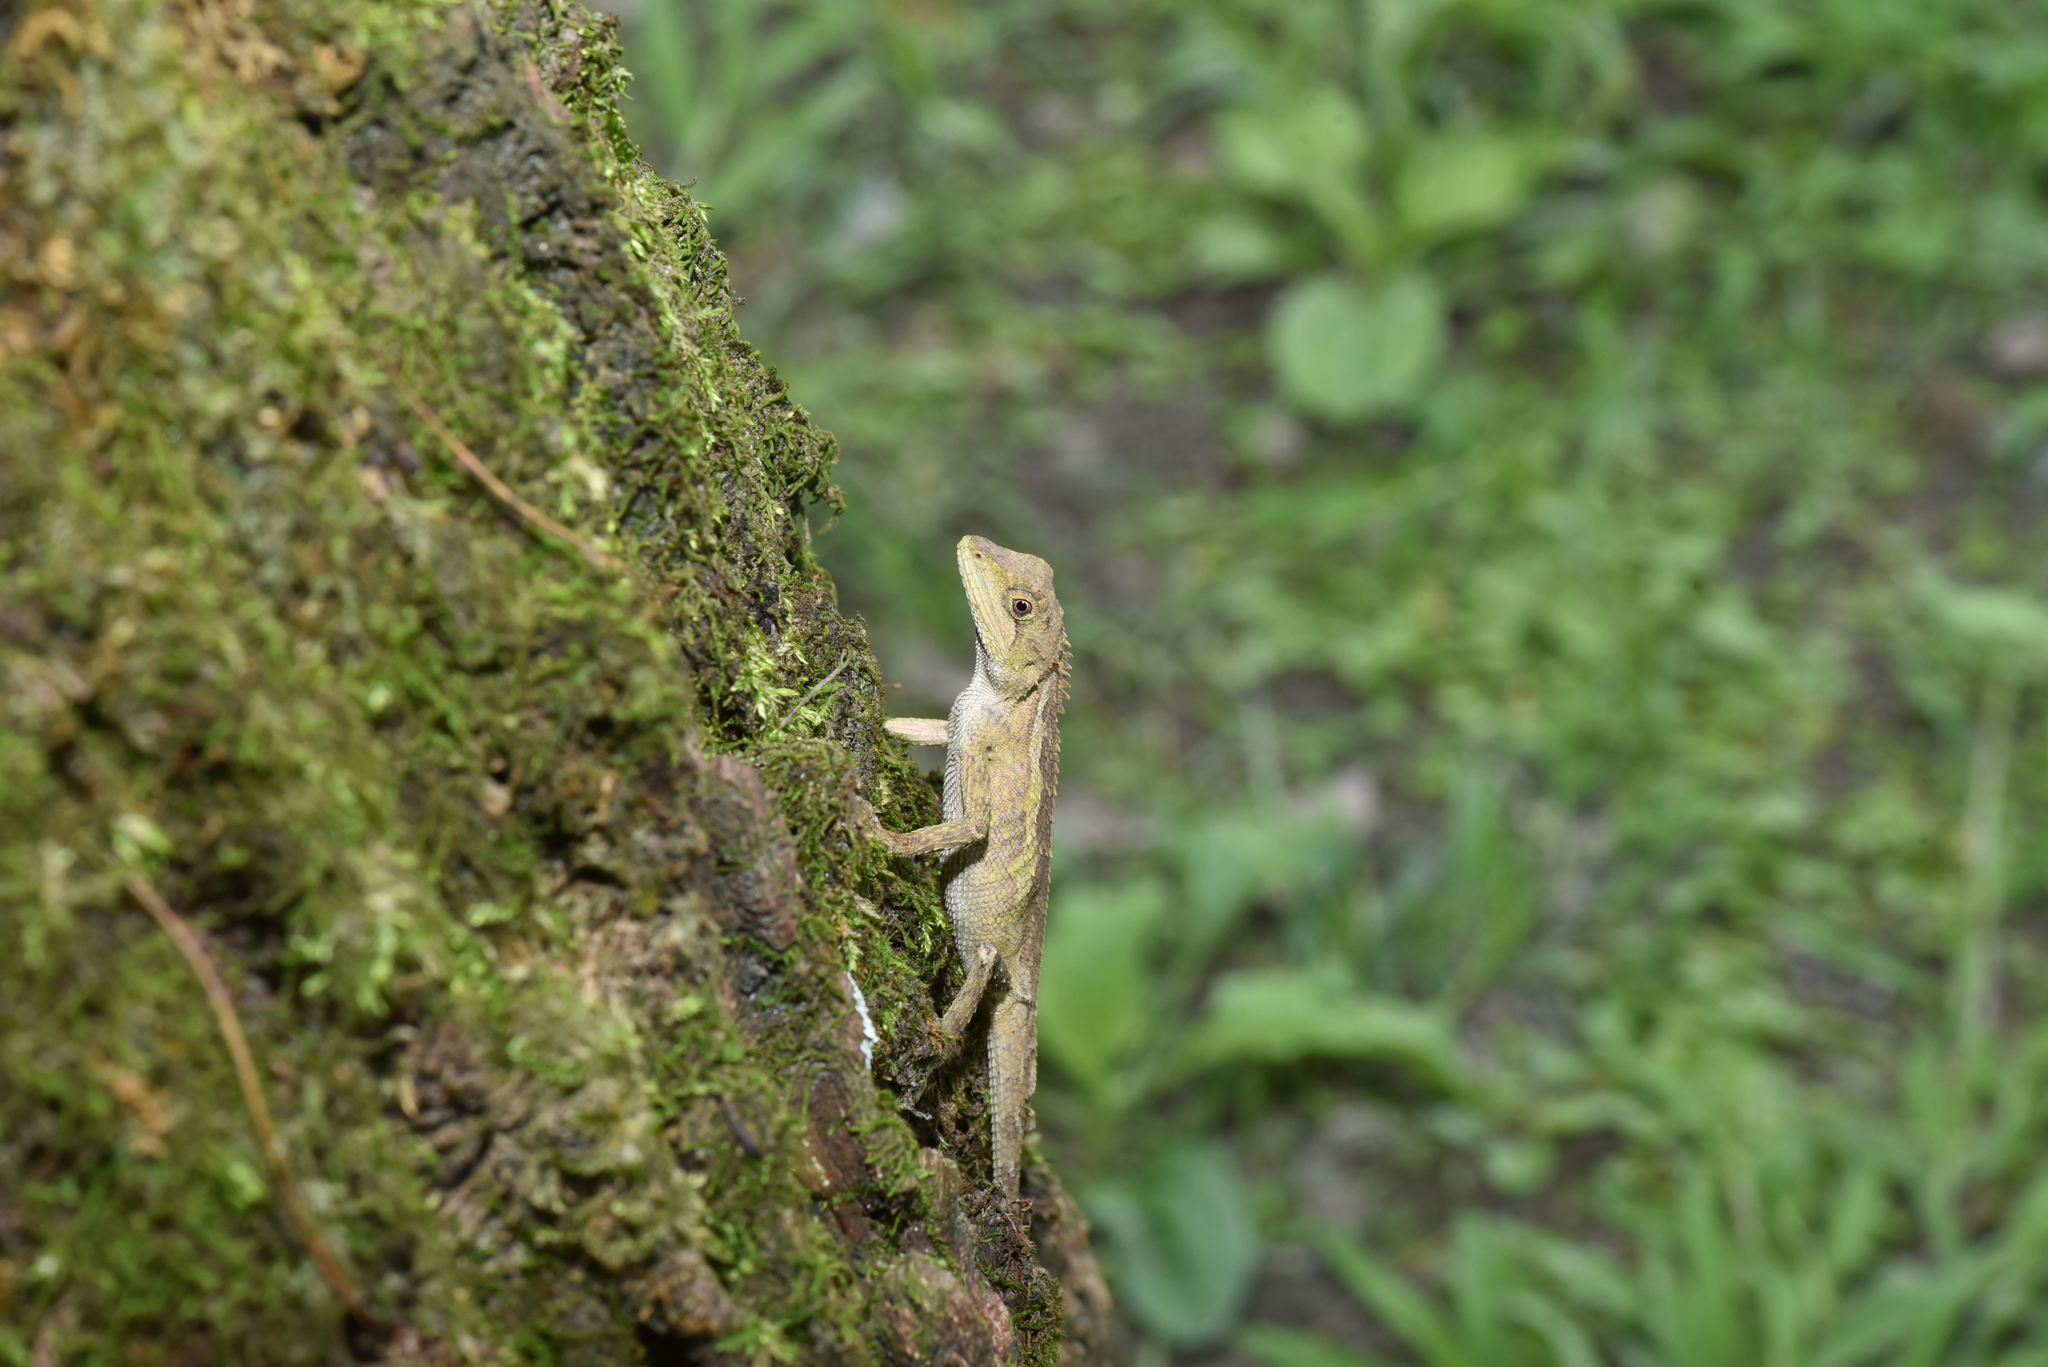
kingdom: Animalia
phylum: Chordata
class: Squamata
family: Agamidae
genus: Diploderma
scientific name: Diploderma swinhonis
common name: Taiwan japalure
